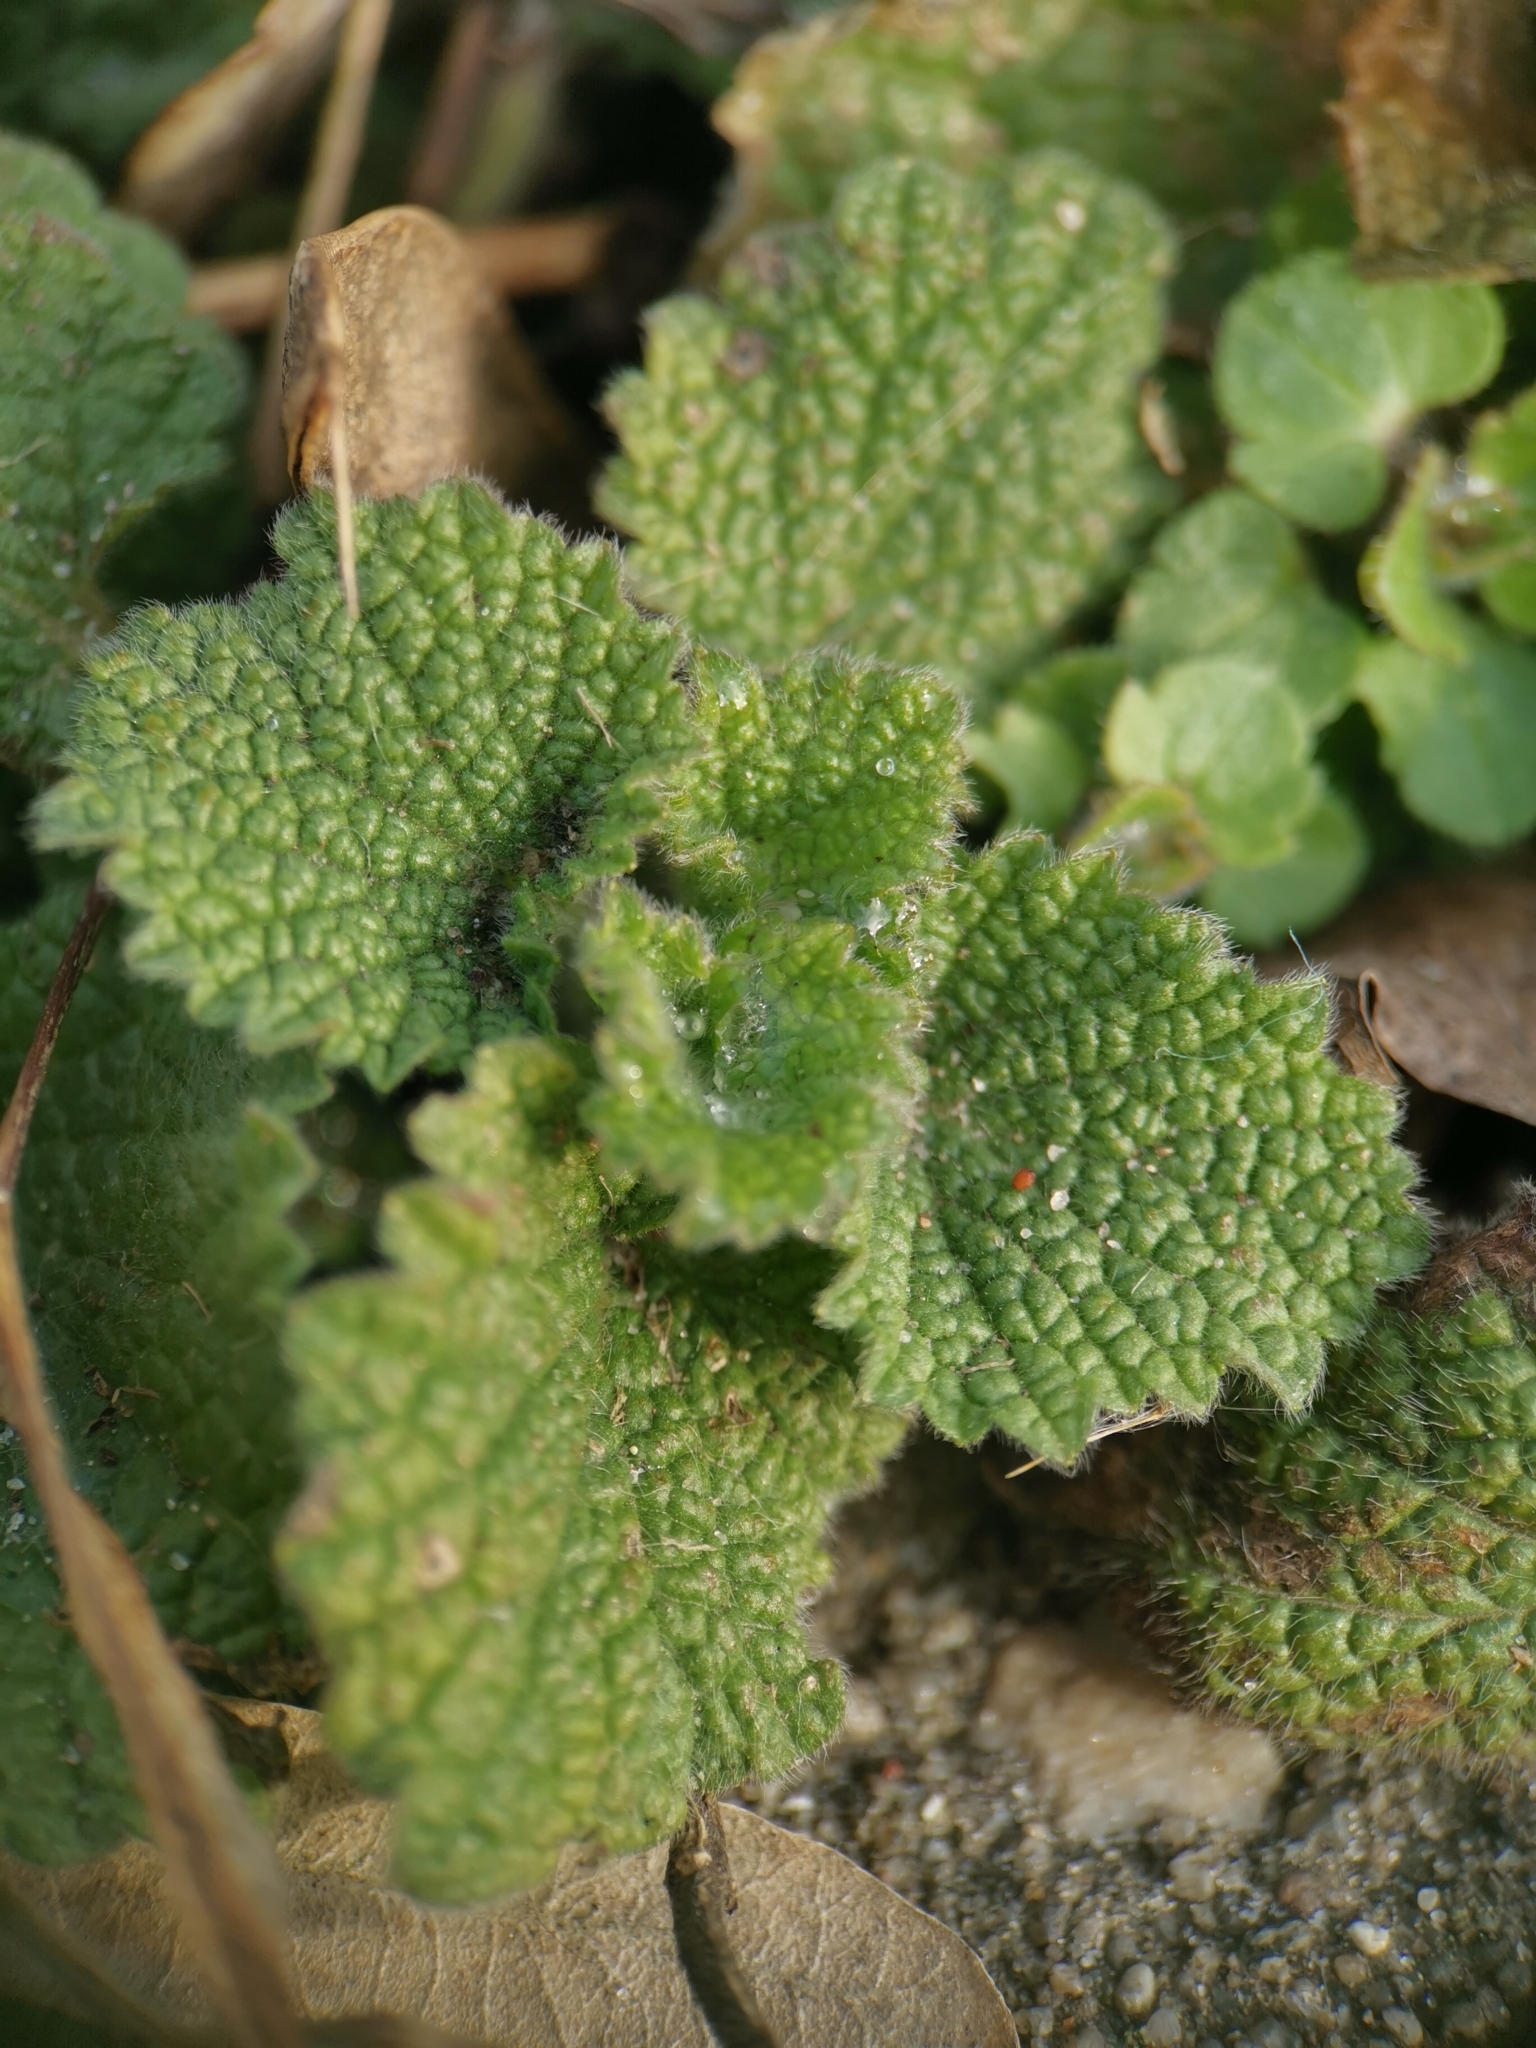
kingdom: Plantae
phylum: Tracheophyta
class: Magnoliopsida
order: Lamiales
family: Lamiaceae
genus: Ballota
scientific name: Ballota nigra
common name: Black horehound
